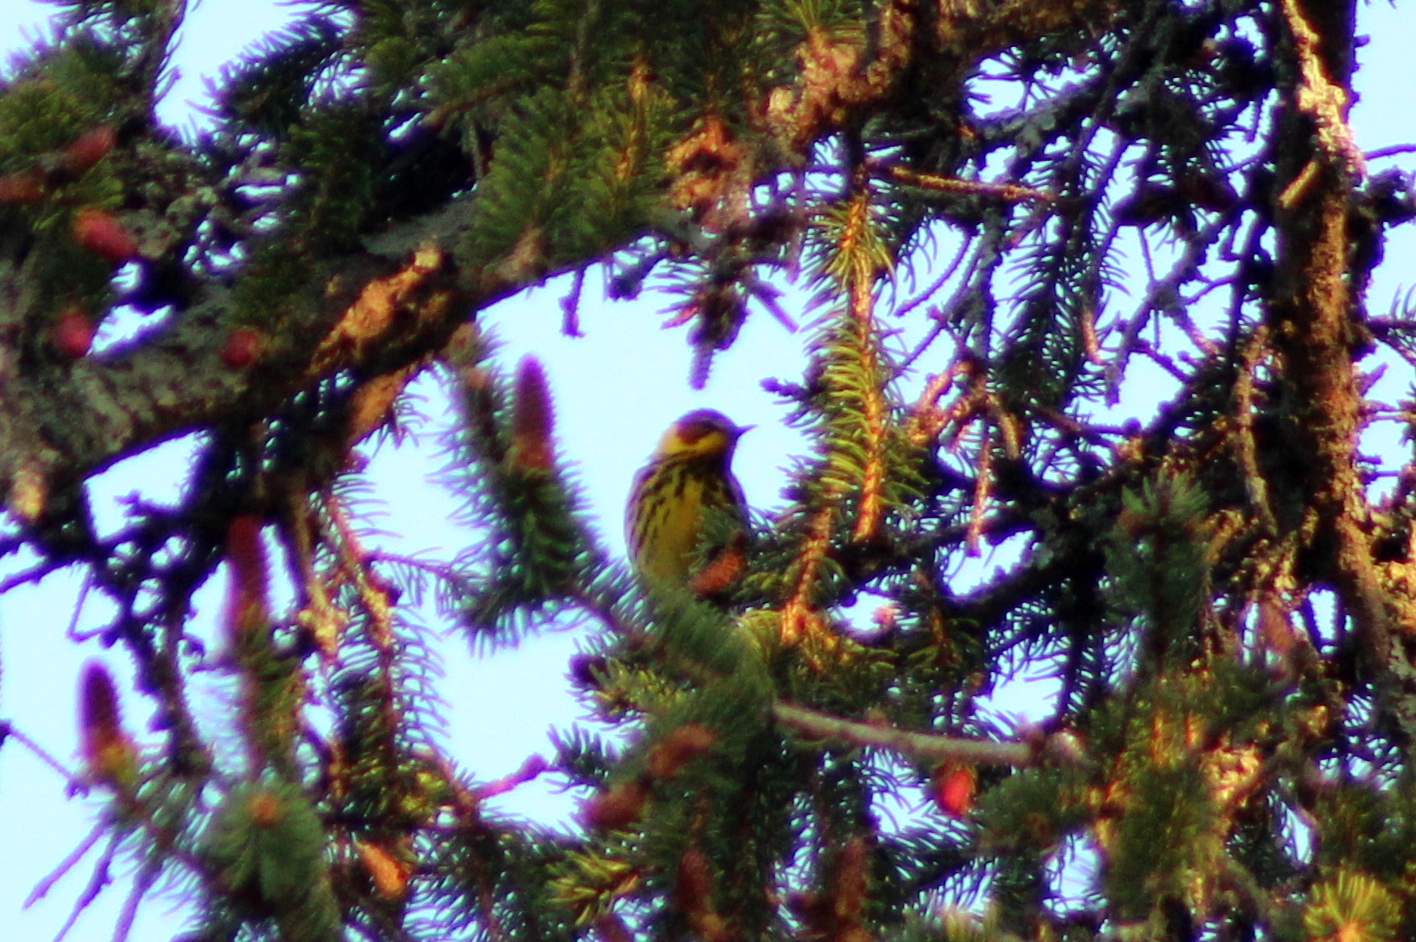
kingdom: Animalia
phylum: Chordata
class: Aves
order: Passeriformes
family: Parulidae
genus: Setophaga
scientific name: Setophaga tigrina
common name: Cape may warbler
